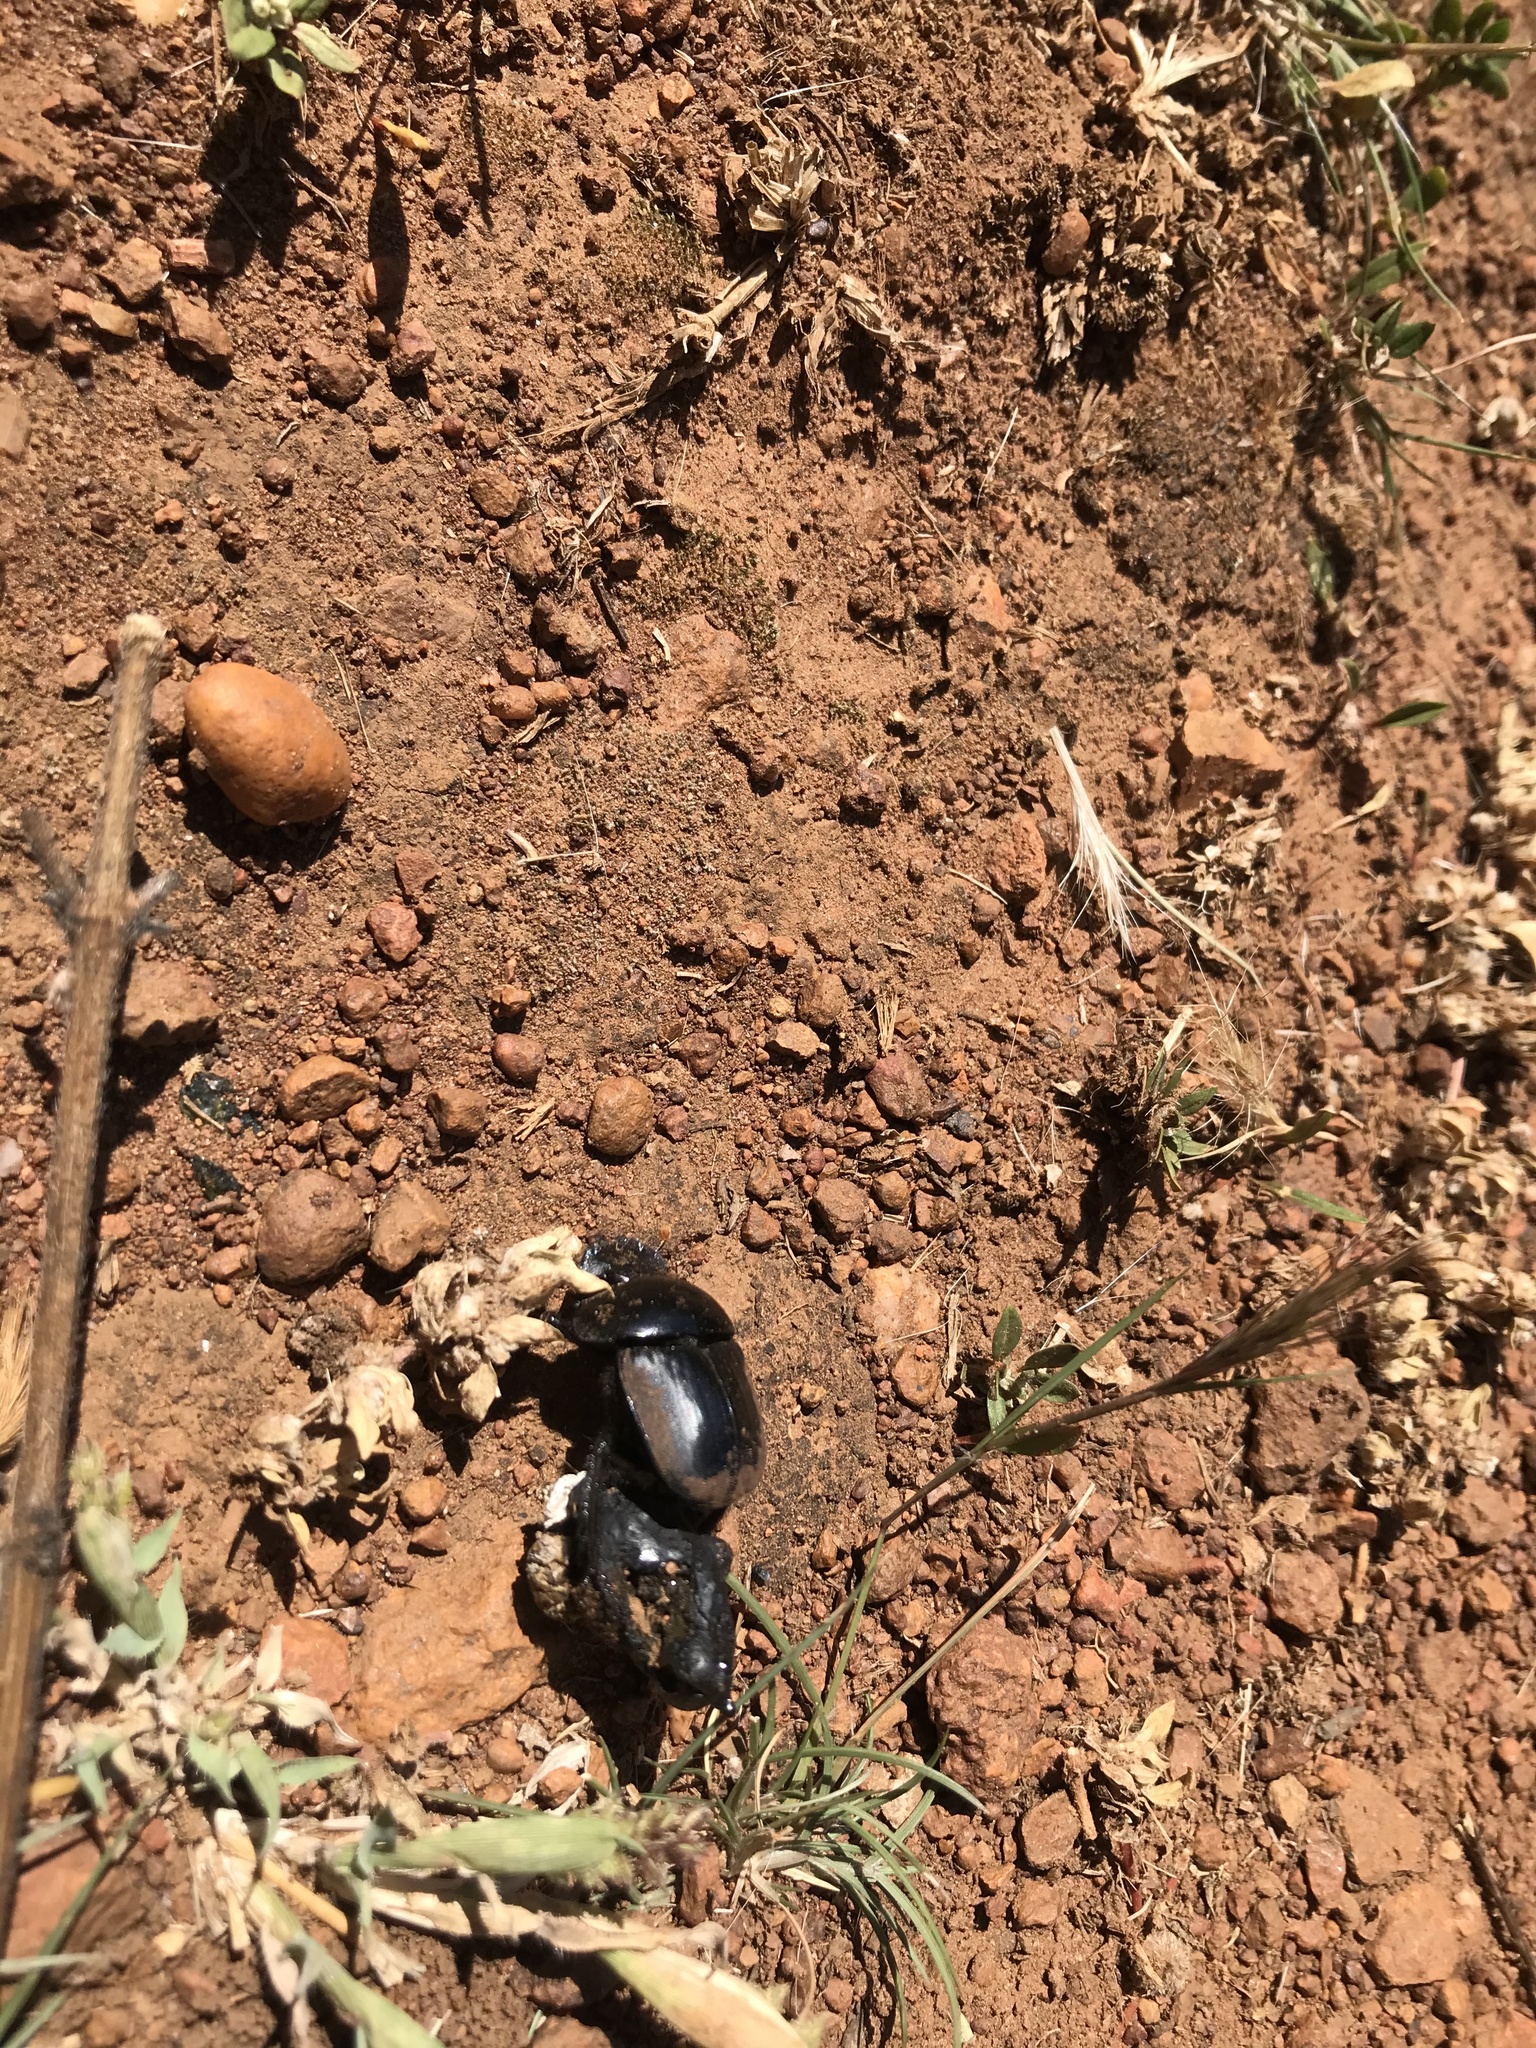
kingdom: Animalia
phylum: Arthropoda
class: Insecta
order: Coleoptera
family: Scarabaeidae
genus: Scarabaeus
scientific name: Scarabaeus rusticus
